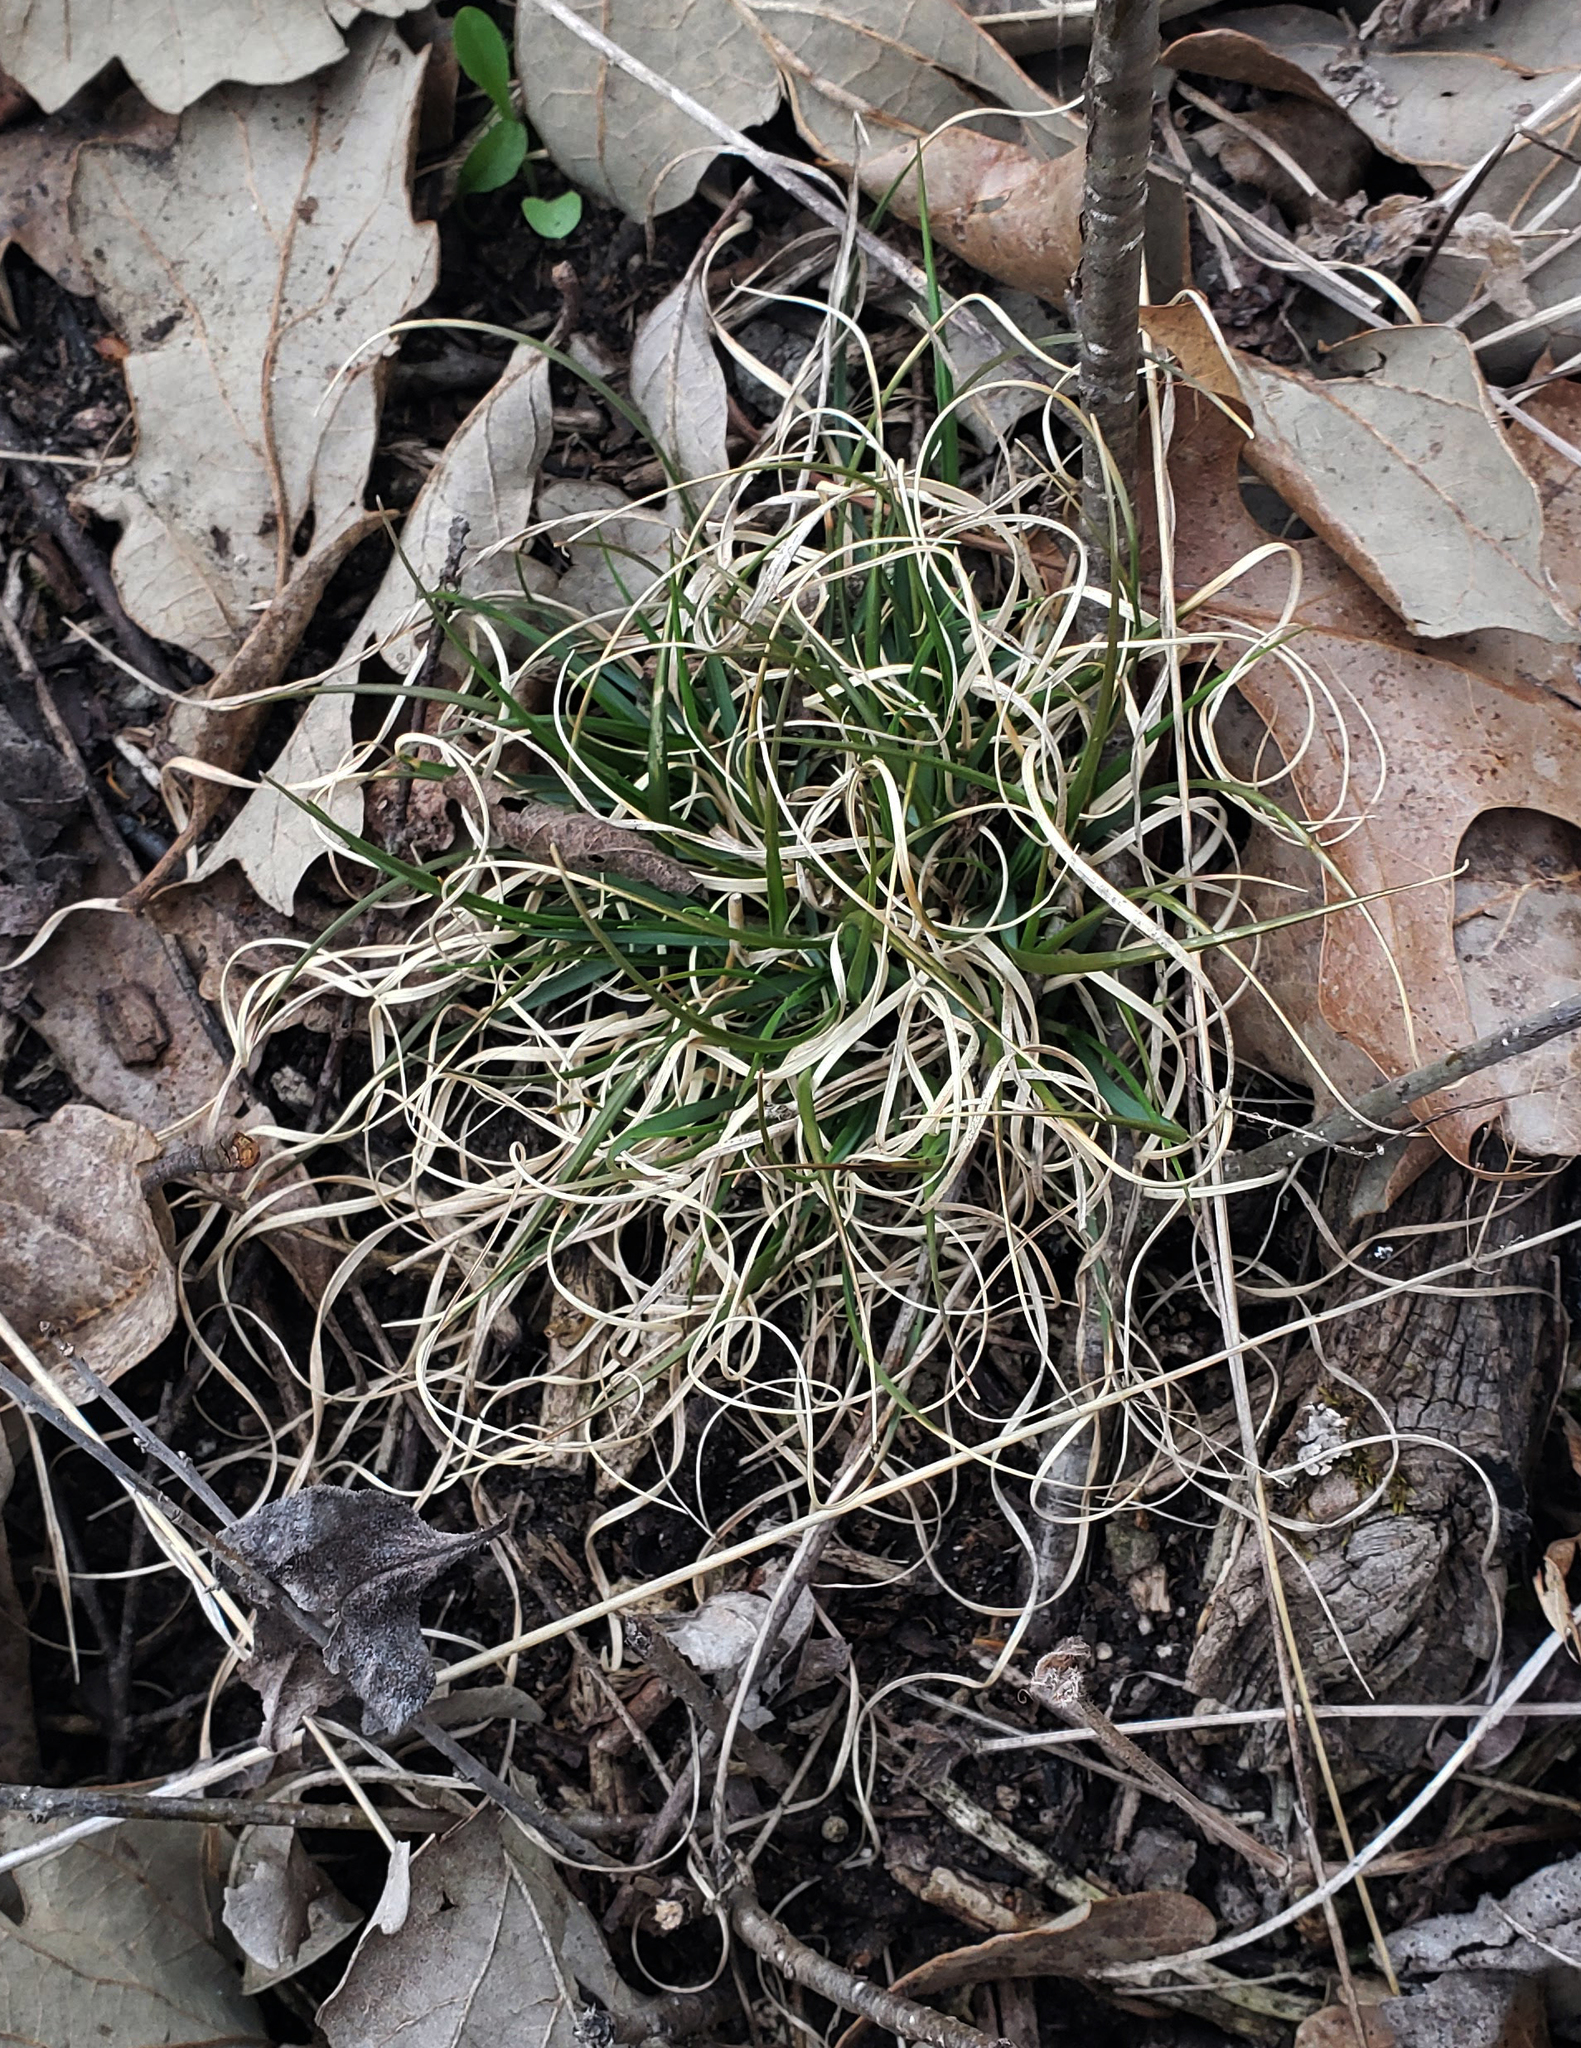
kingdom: Plantae
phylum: Tracheophyta
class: Liliopsida
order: Poales
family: Poaceae
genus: Danthonia
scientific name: Danthonia spicata
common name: Common wild oatgrass
